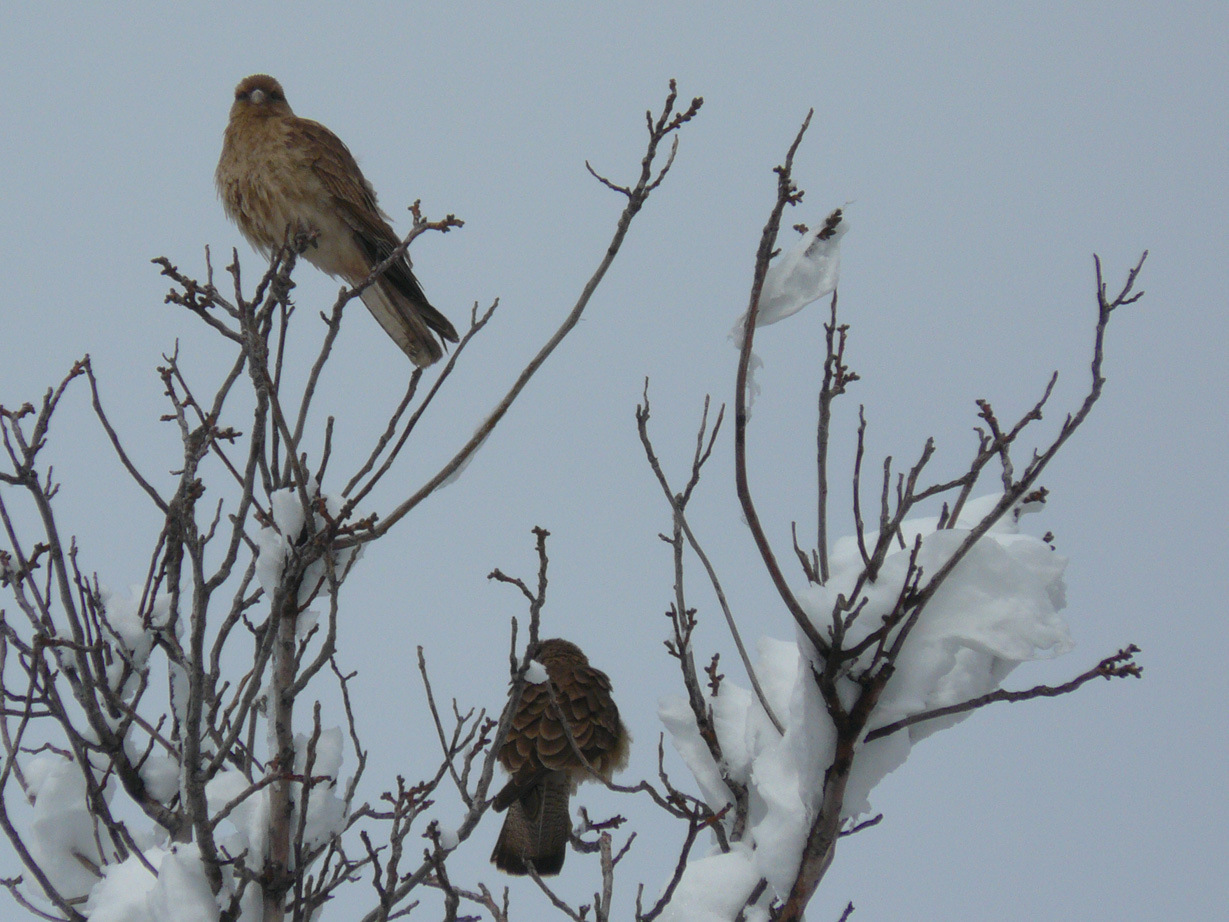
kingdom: Animalia
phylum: Chordata
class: Aves
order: Falconiformes
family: Falconidae
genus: Daptrius
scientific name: Daptrius
